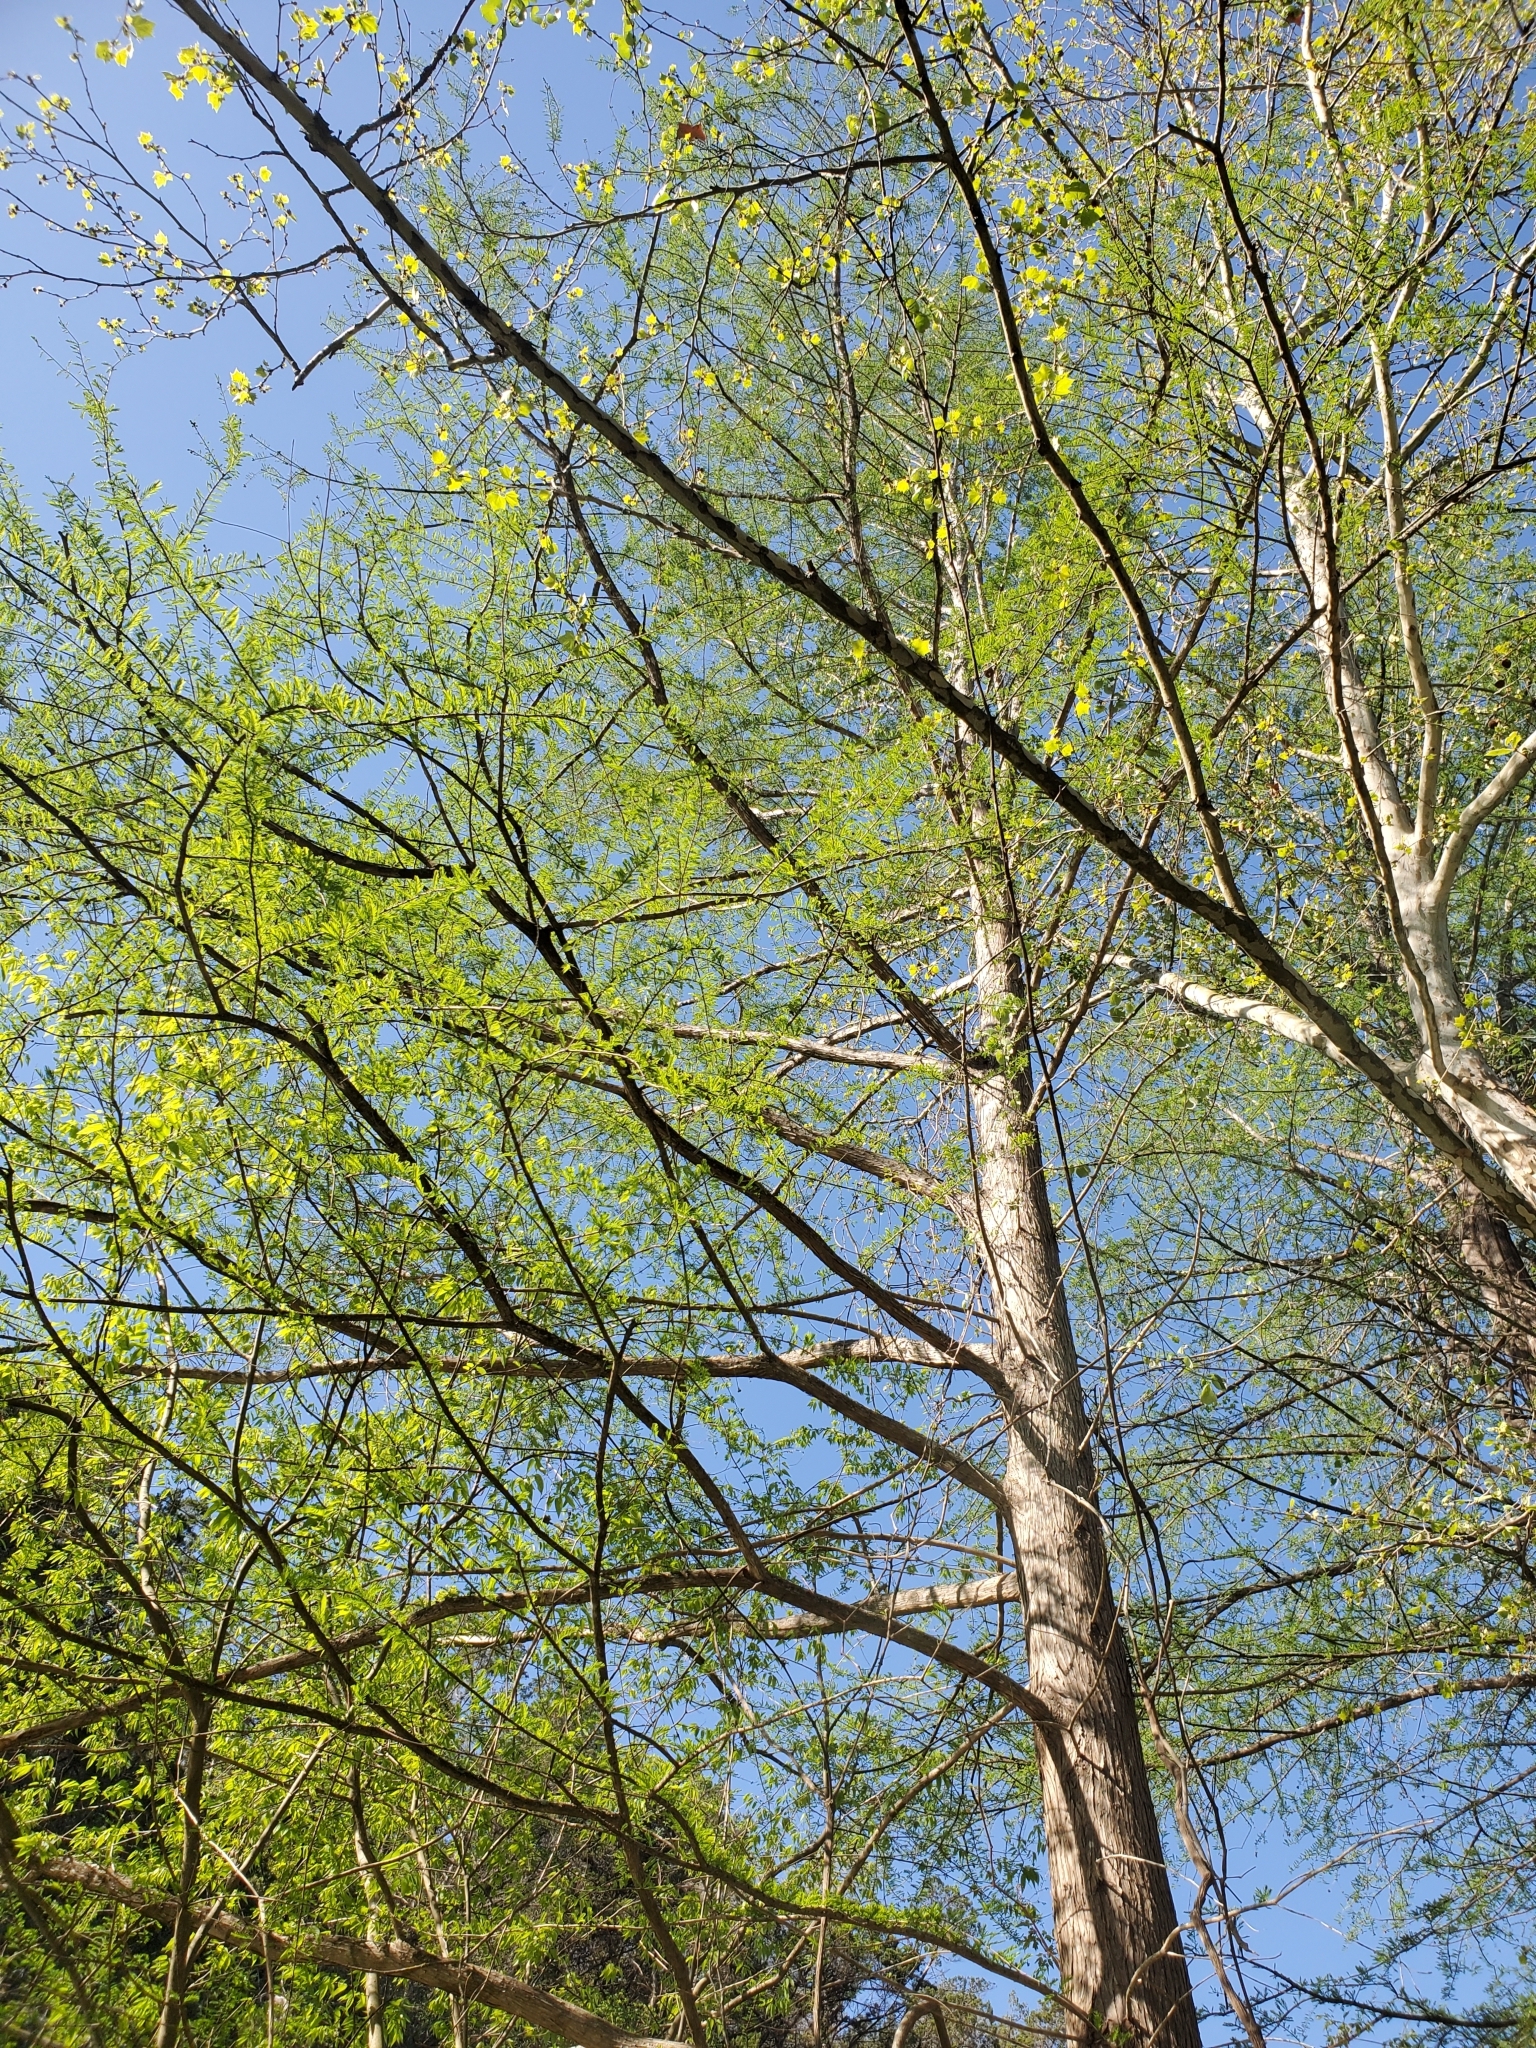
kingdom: Plantae
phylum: Tracheophyta
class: Pinopsida
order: Pinales
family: Cupressaceae
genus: Taxodium
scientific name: Taxodium distichum
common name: Bald cypress
